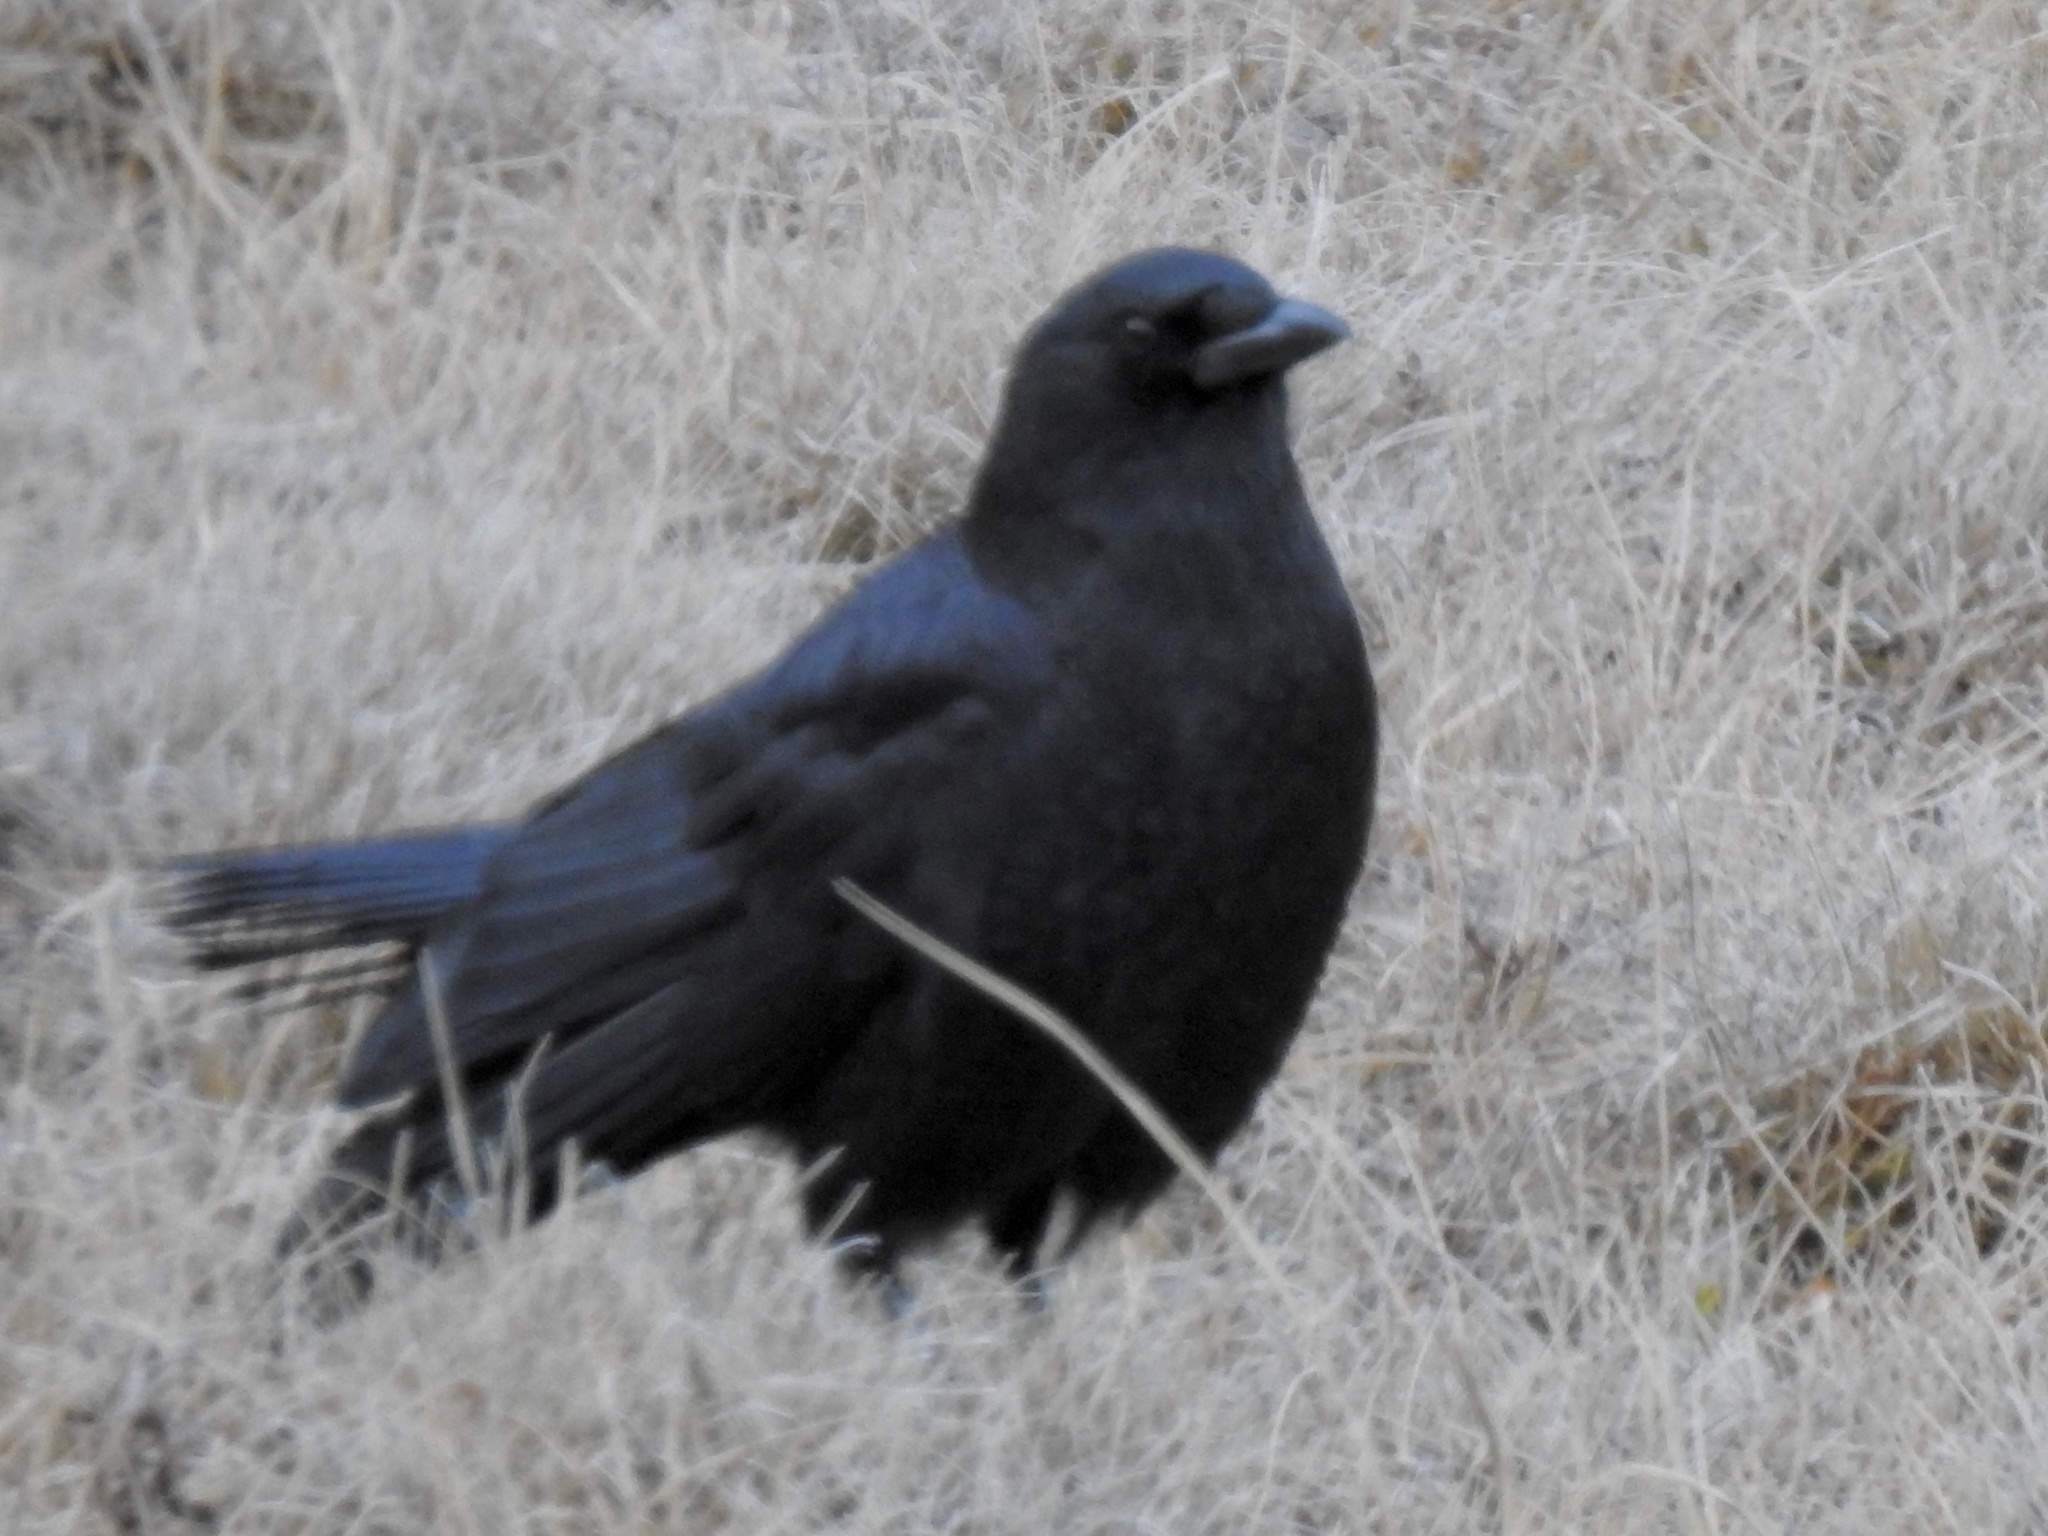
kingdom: Animalia
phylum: Chordata
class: Aves
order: Passeriformes
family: Corvidae
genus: Corvus
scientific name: Corvus corax
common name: Common raven
